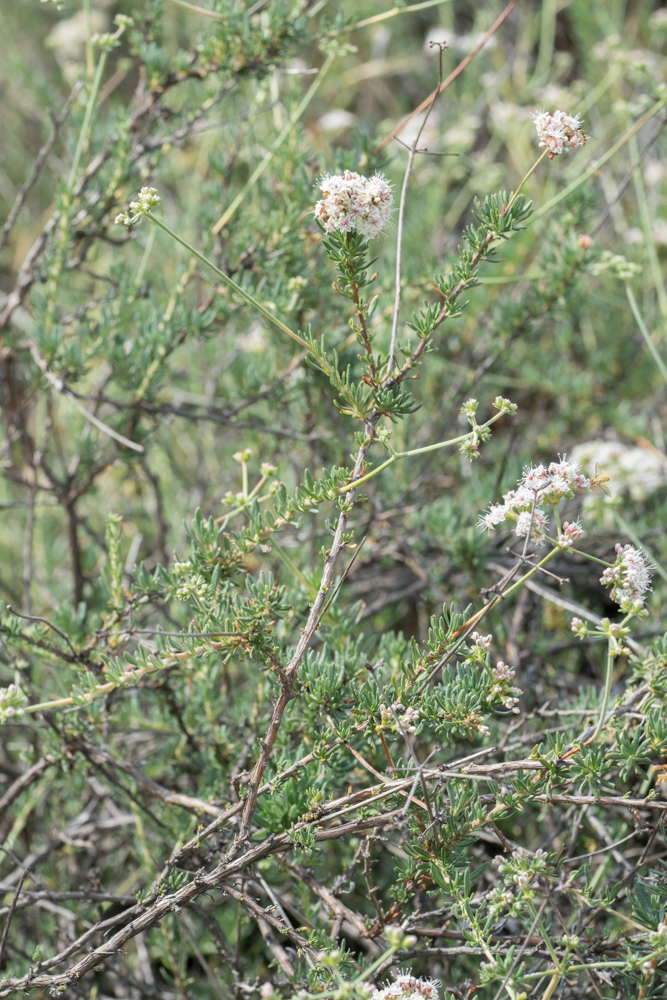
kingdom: Plantae
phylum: Tracheophyta
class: Magnoliopsida
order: Caryophyllales
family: Polygonaceae
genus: Eriogonum
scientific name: Eriogonum fasciculatum
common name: California wild buckwheat
